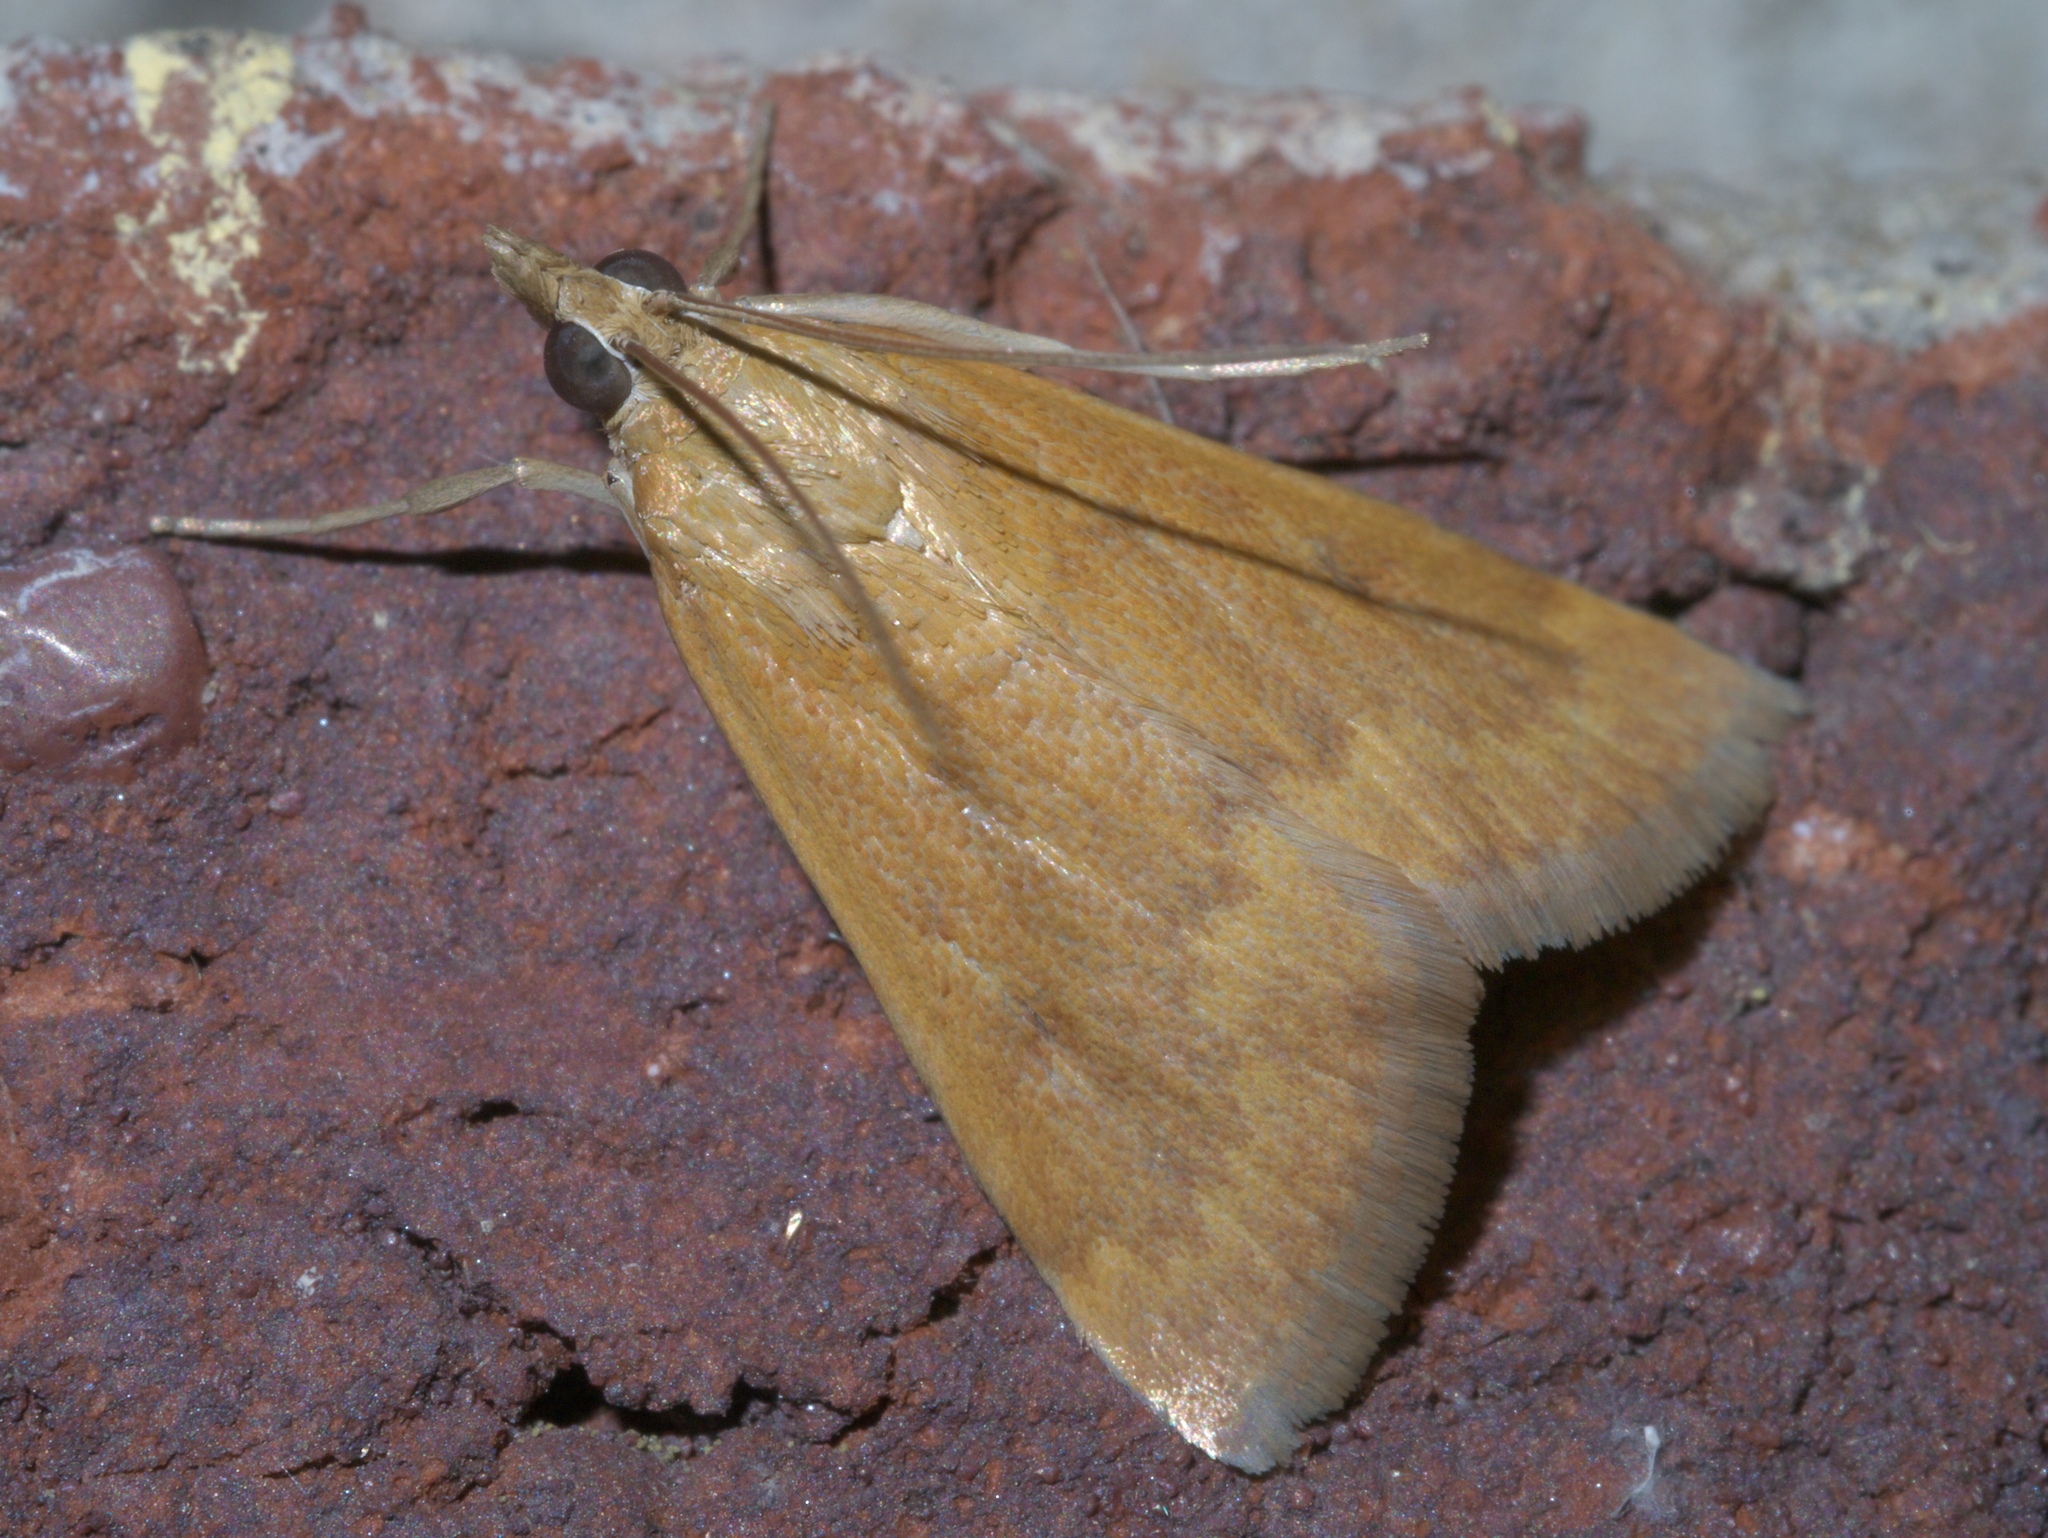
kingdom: Animalia
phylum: Arthropoda
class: Insecta
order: Lepidoptera
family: Crambidae
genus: Achyra
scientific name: Achyra rantalis
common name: Garden webworm
